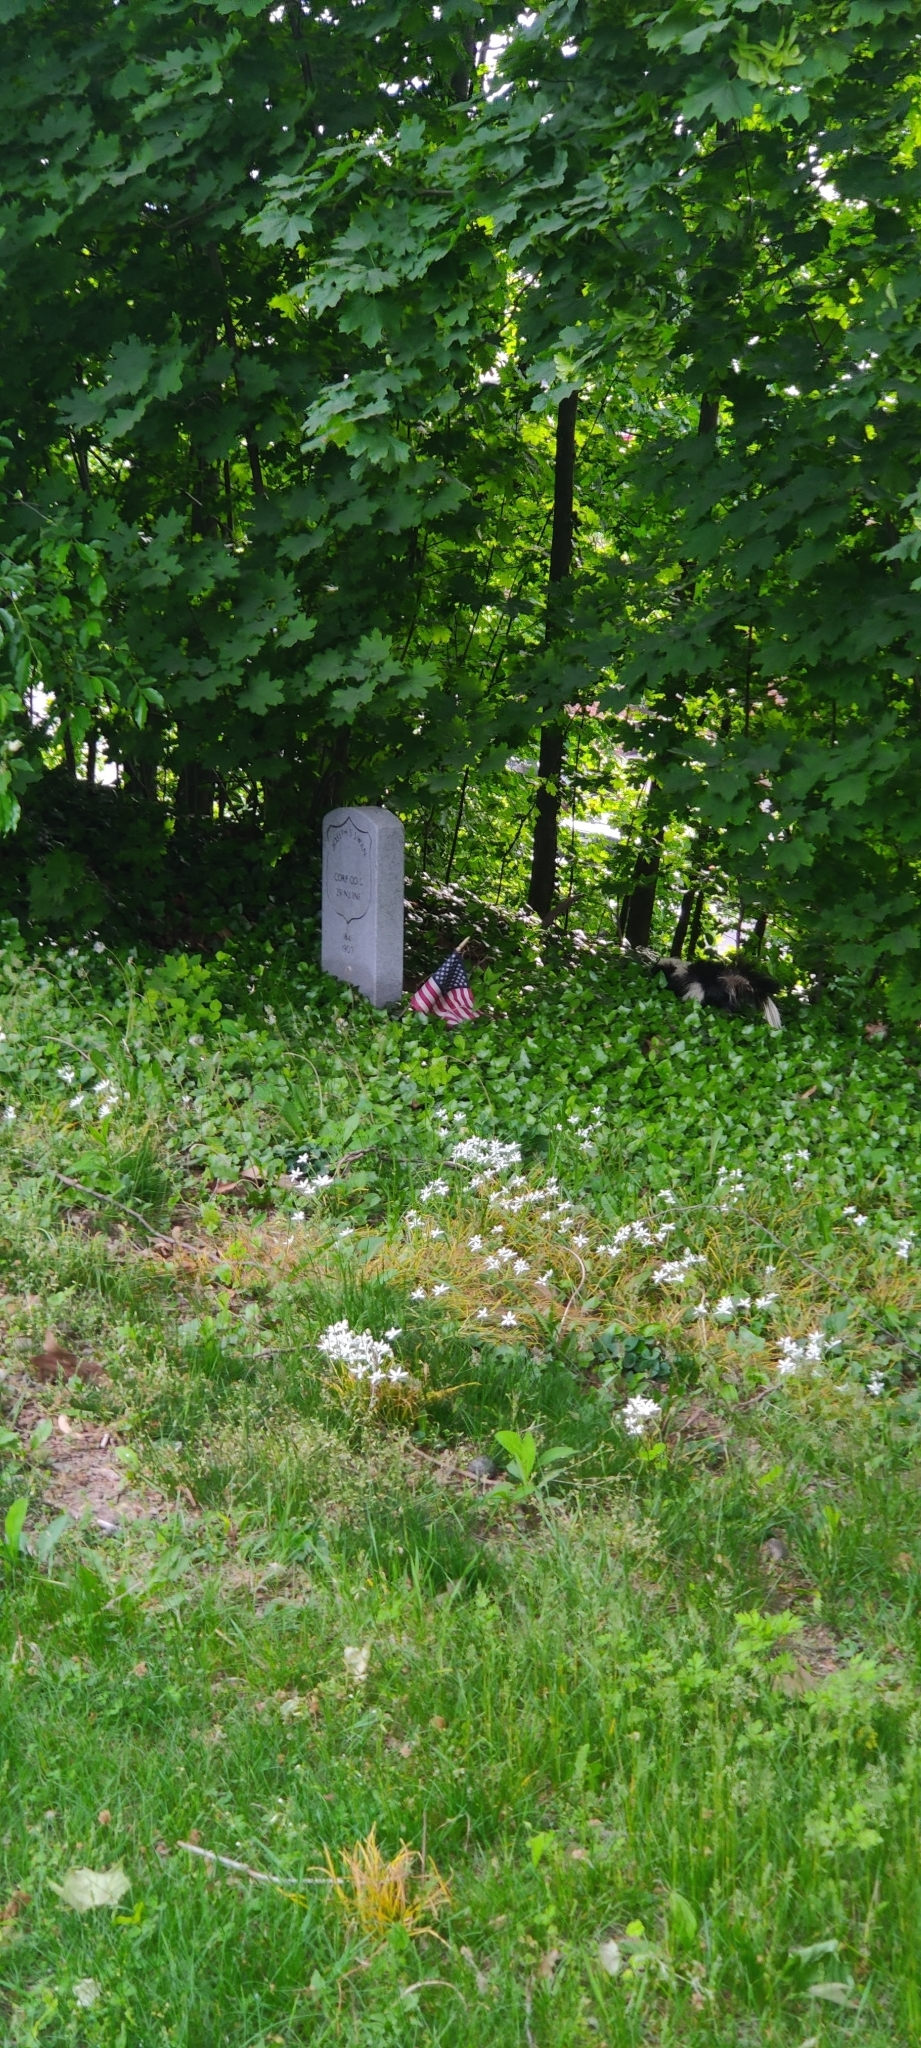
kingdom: Animalia
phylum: Chordata
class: Mammalia
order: Carnivora
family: Mephitidae
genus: Mephitis
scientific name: Mephitis mephitis
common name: Striped skunk
